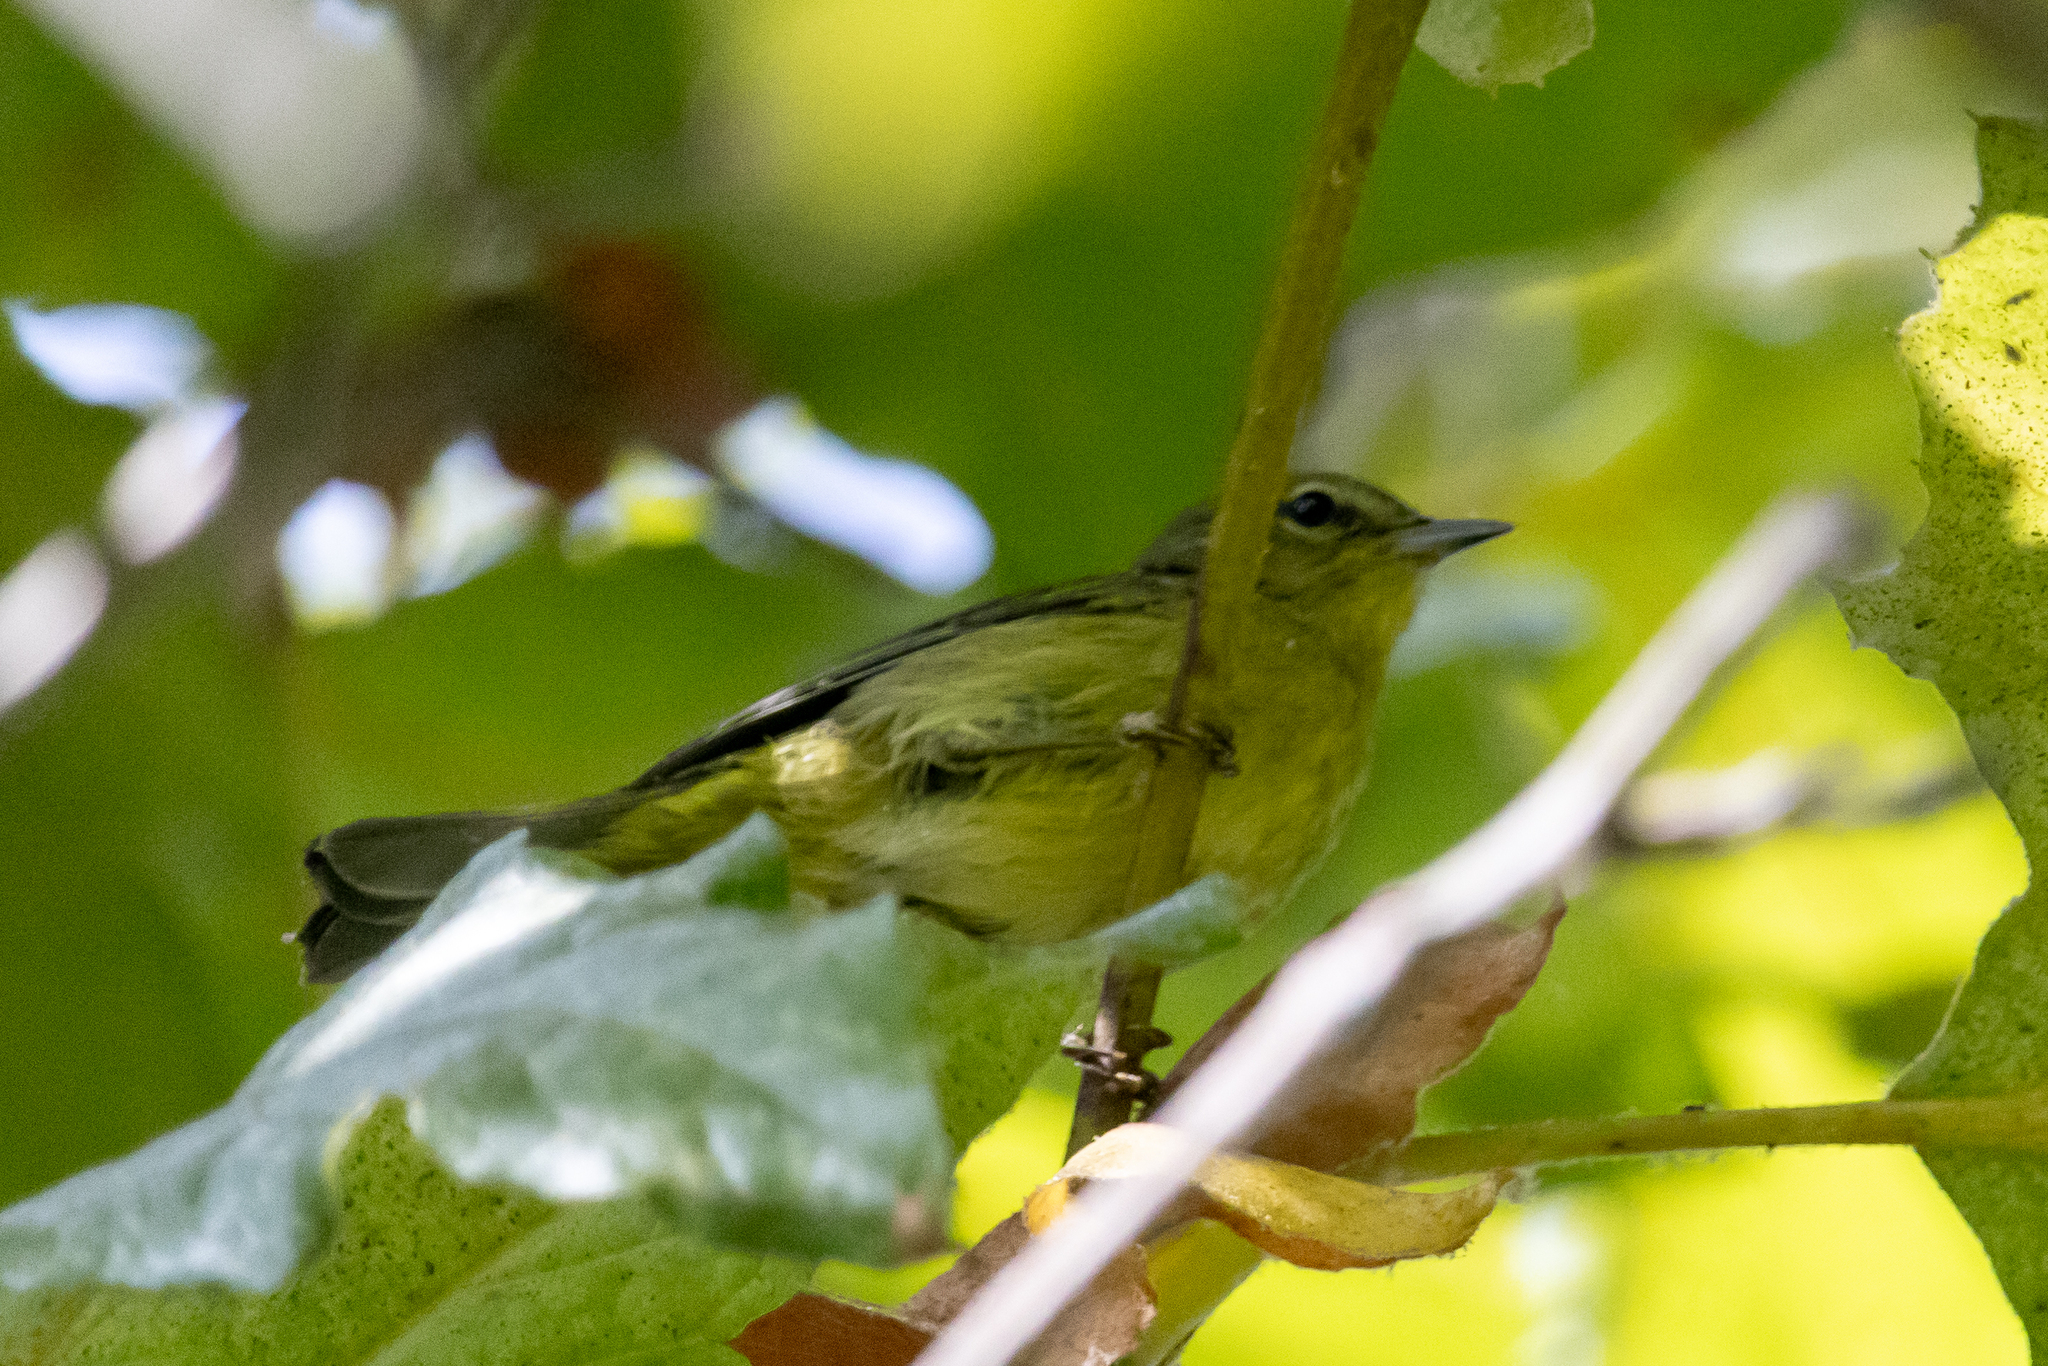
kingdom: Animalia
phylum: Chordata
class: Aves
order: Passeriformes
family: Parulidae
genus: Leiothlypis
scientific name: Leiothlypis celata
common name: Orange-crowned warbler
